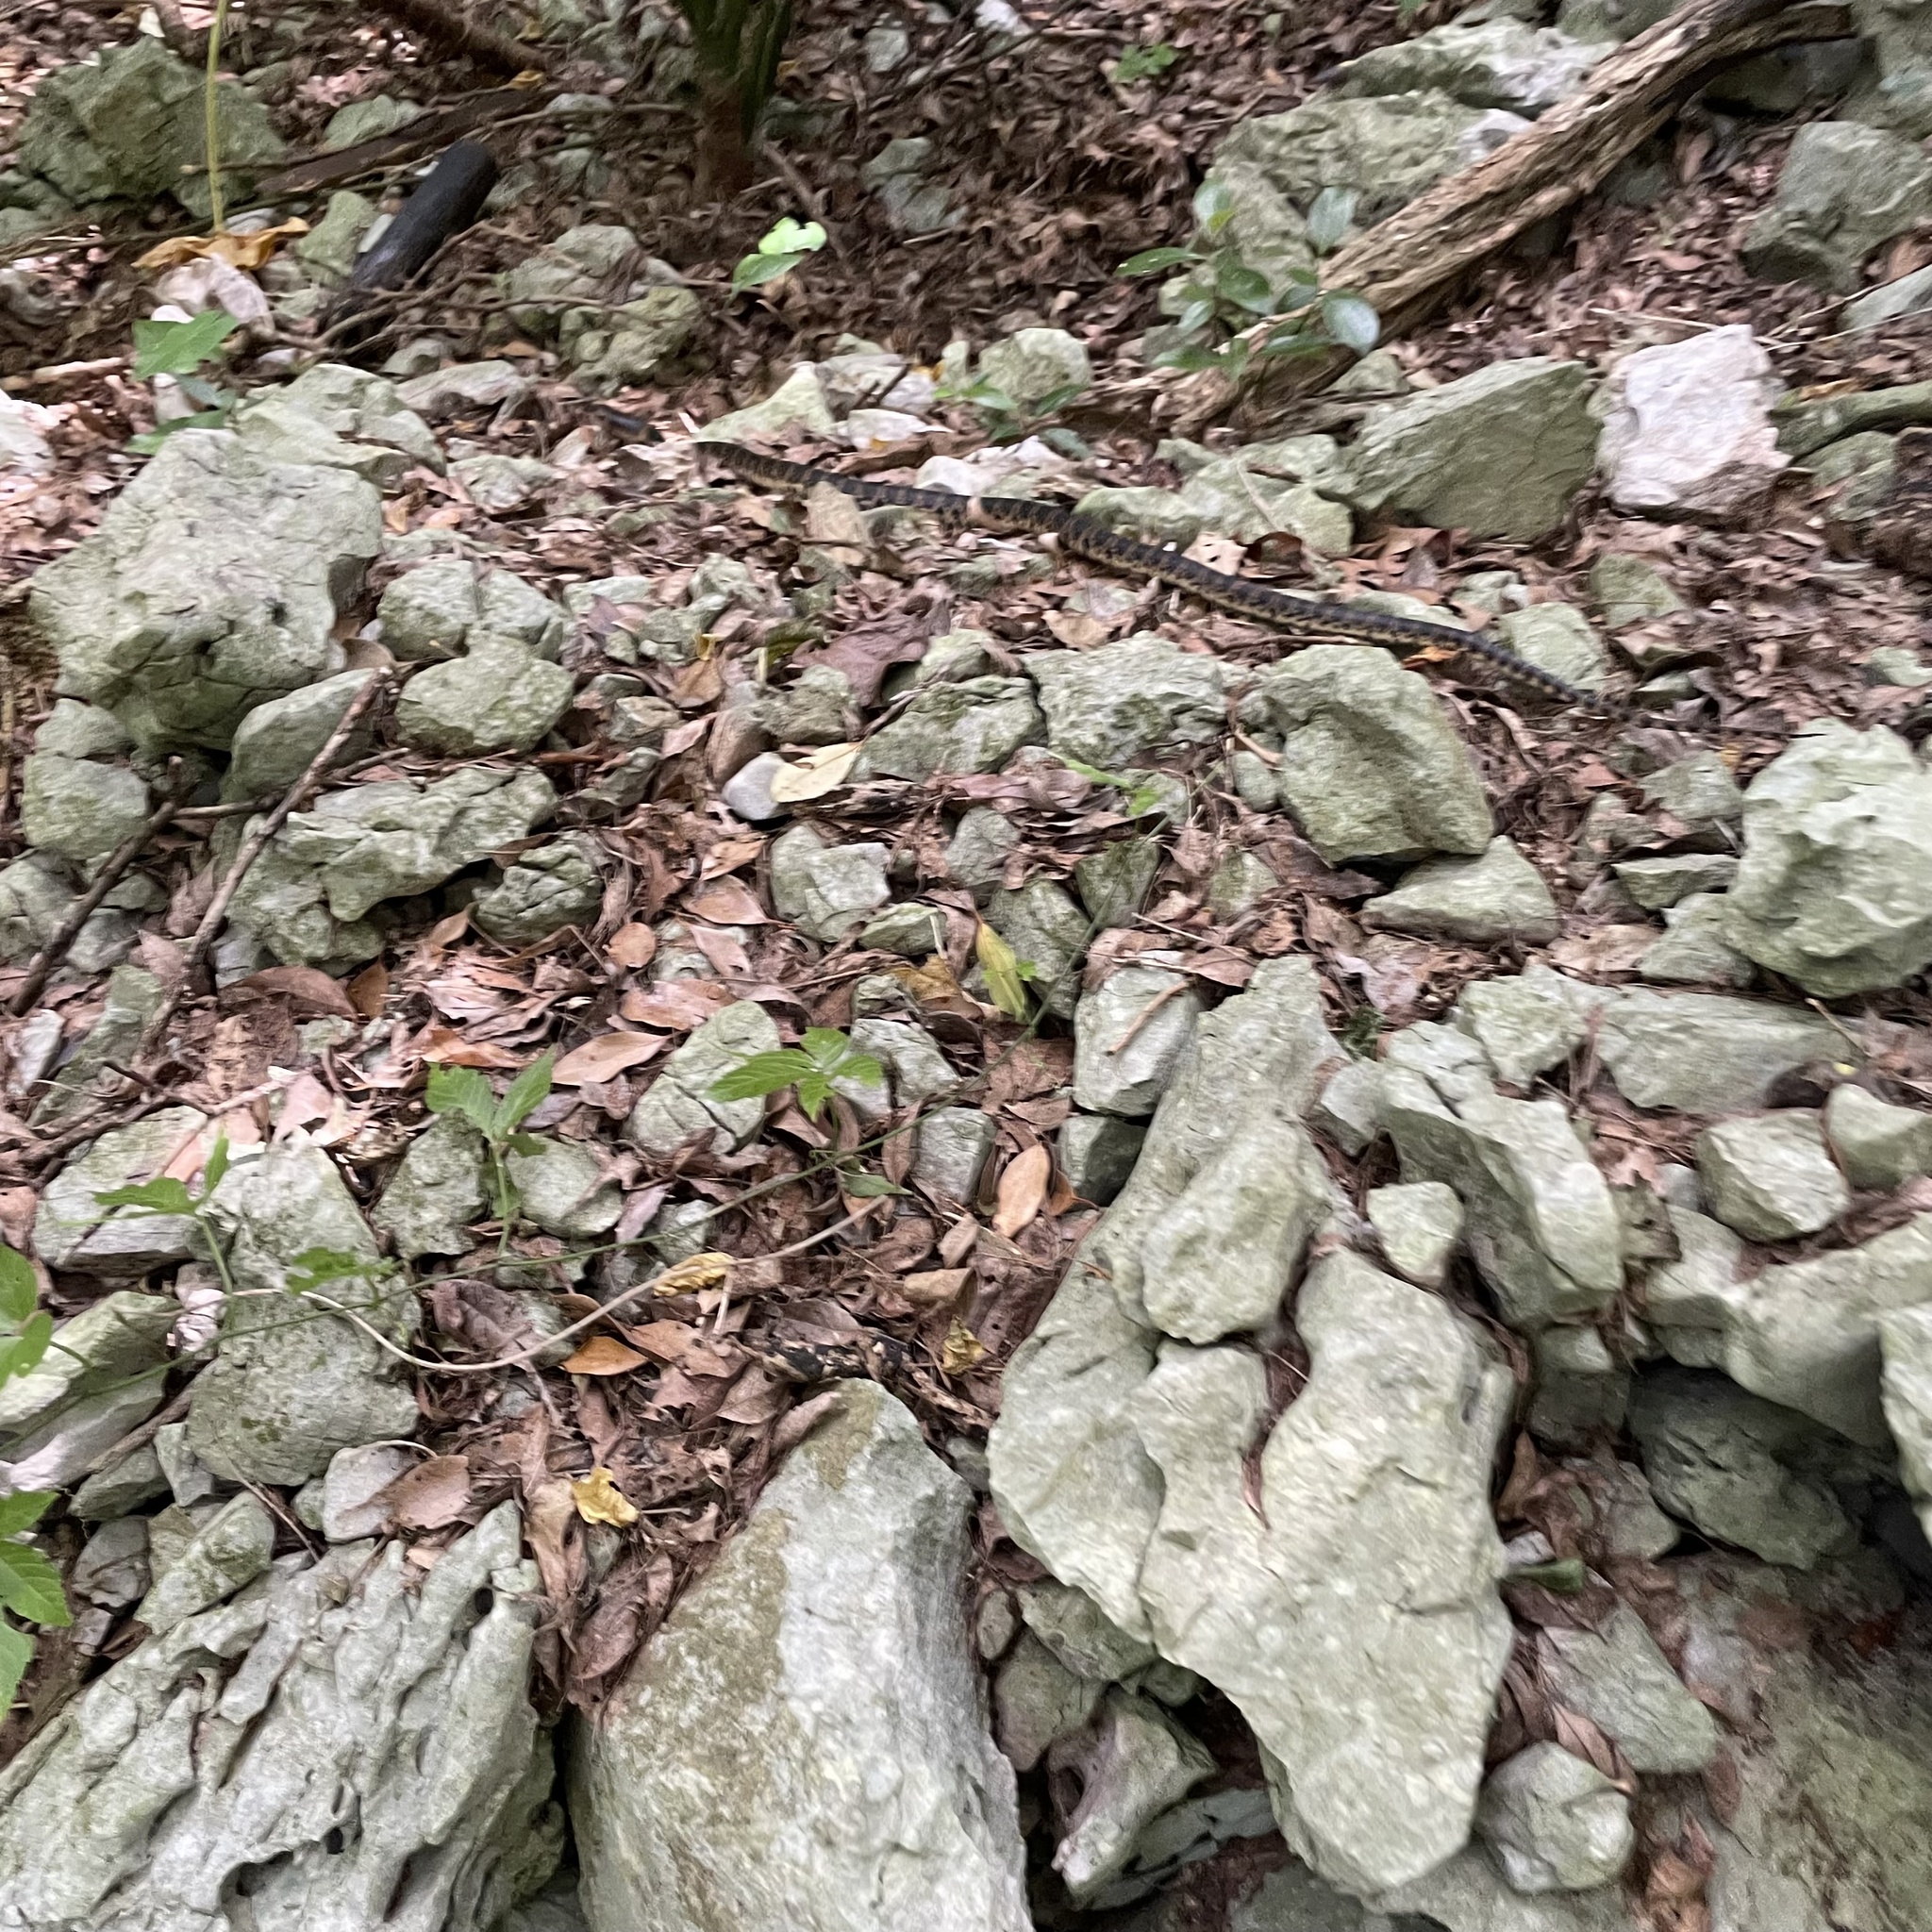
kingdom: Animalia
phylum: Chordata
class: Squamata
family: Colubridae
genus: Lycodon
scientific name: Lycodon semicarinatus
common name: Loo-choo big-tooth snake
